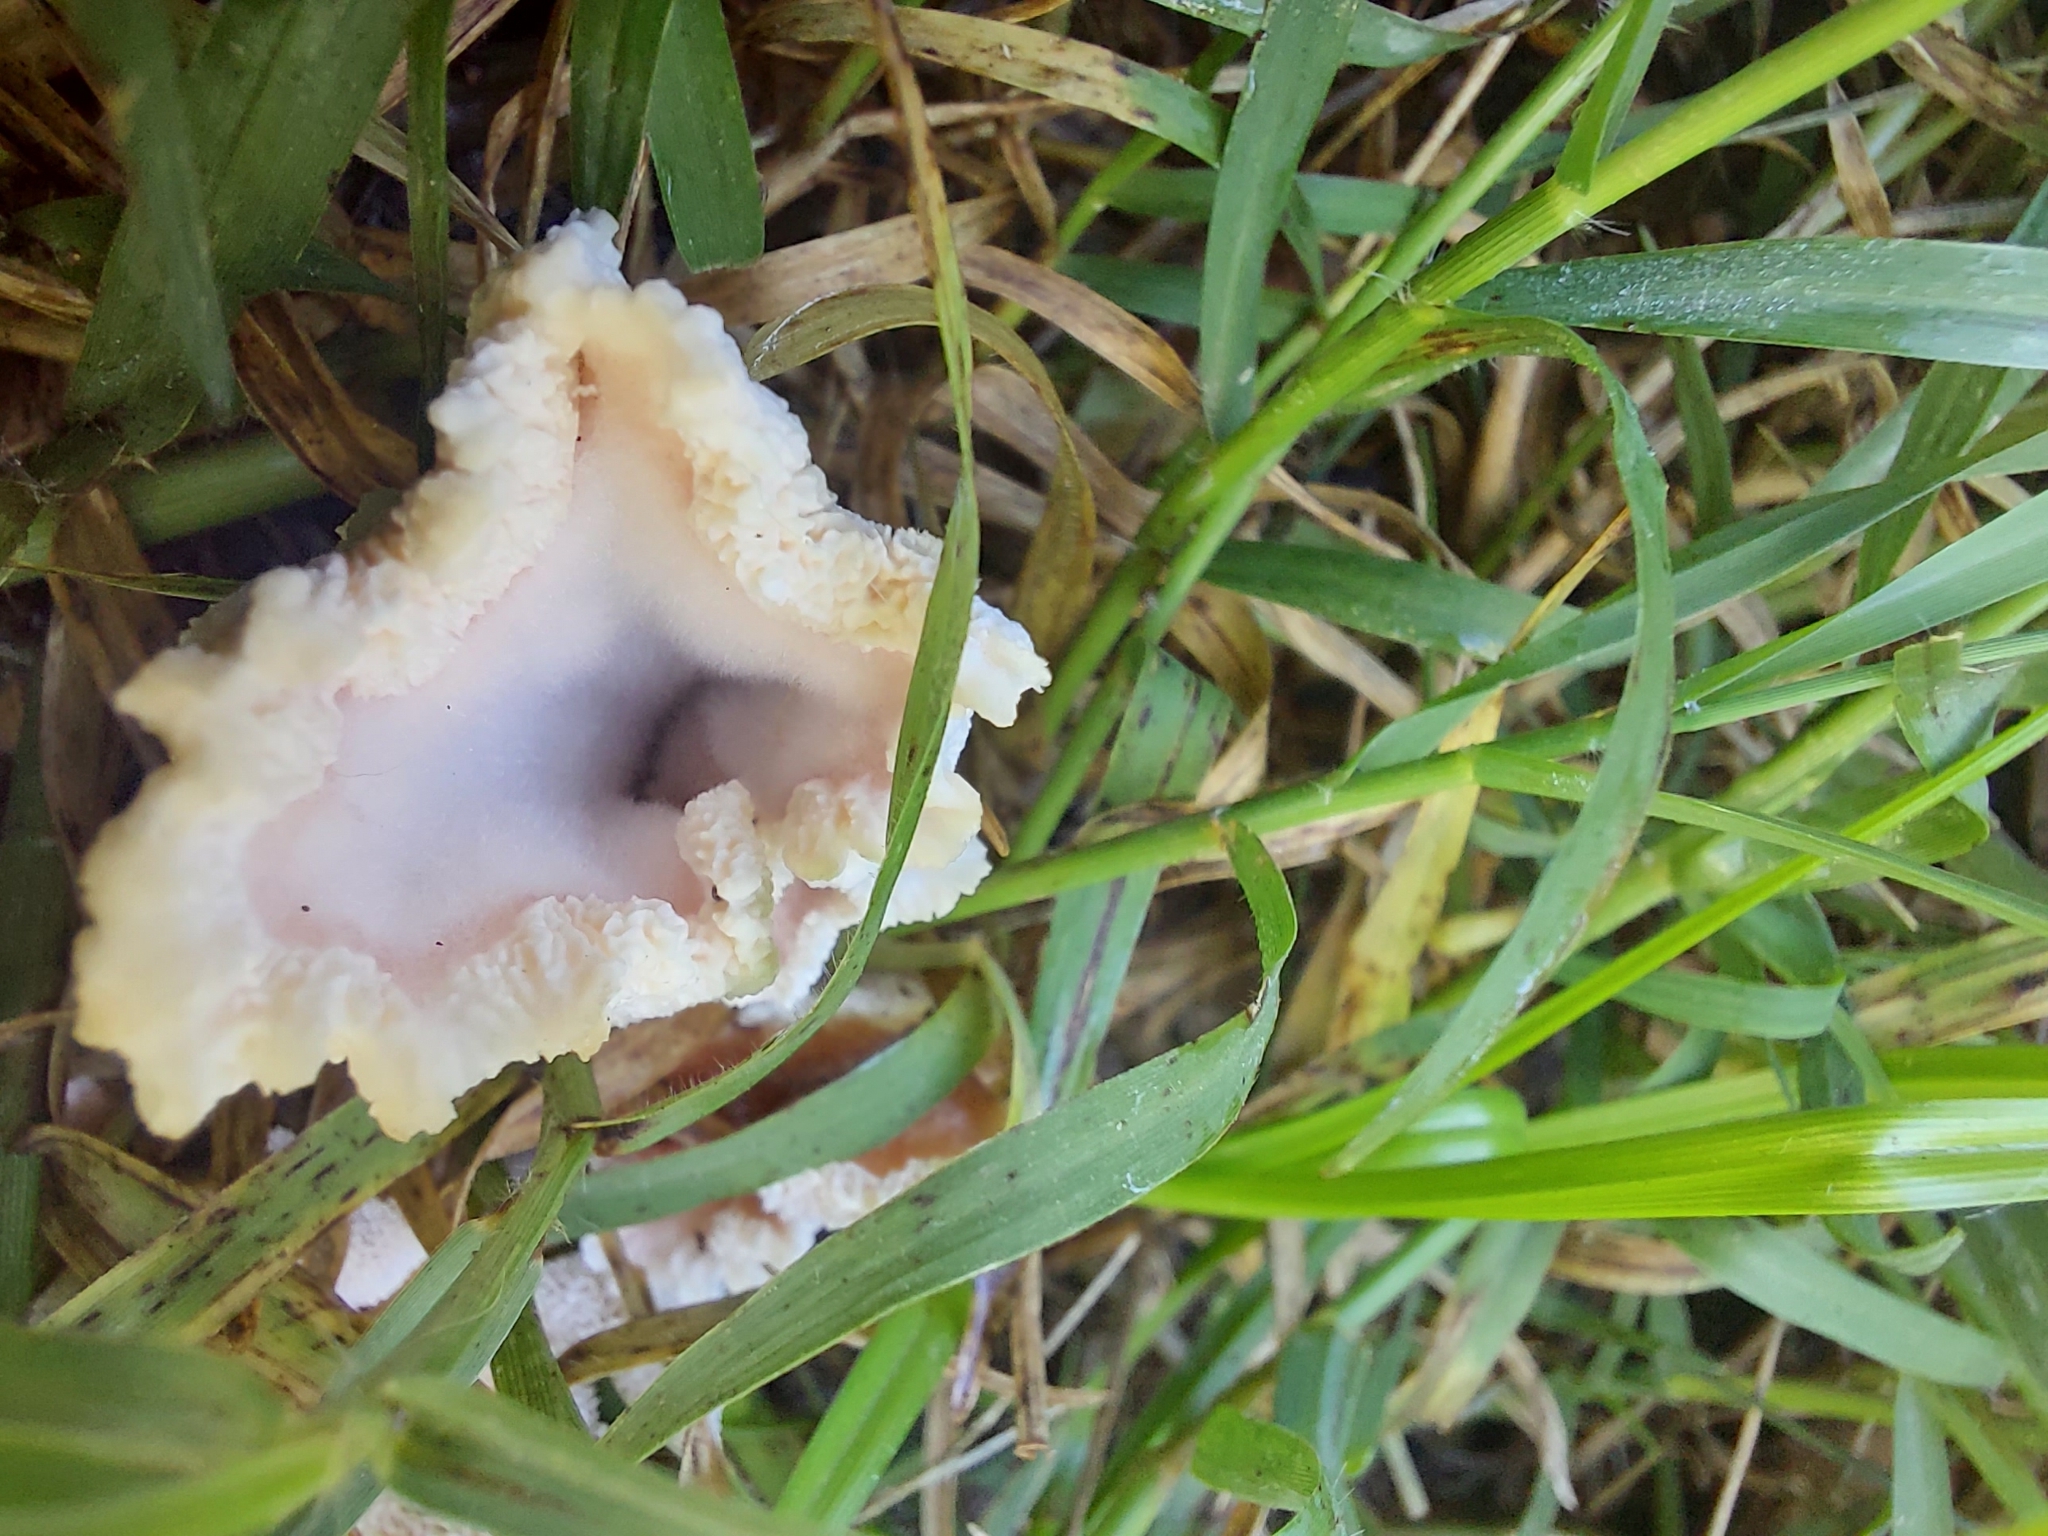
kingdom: Fungi
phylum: Basidiomycota
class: Agaricomycetes
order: Polyporales
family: Podoscyphaceae
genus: Abortiporus
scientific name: Abortiporus biennis
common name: Blushing rosette
